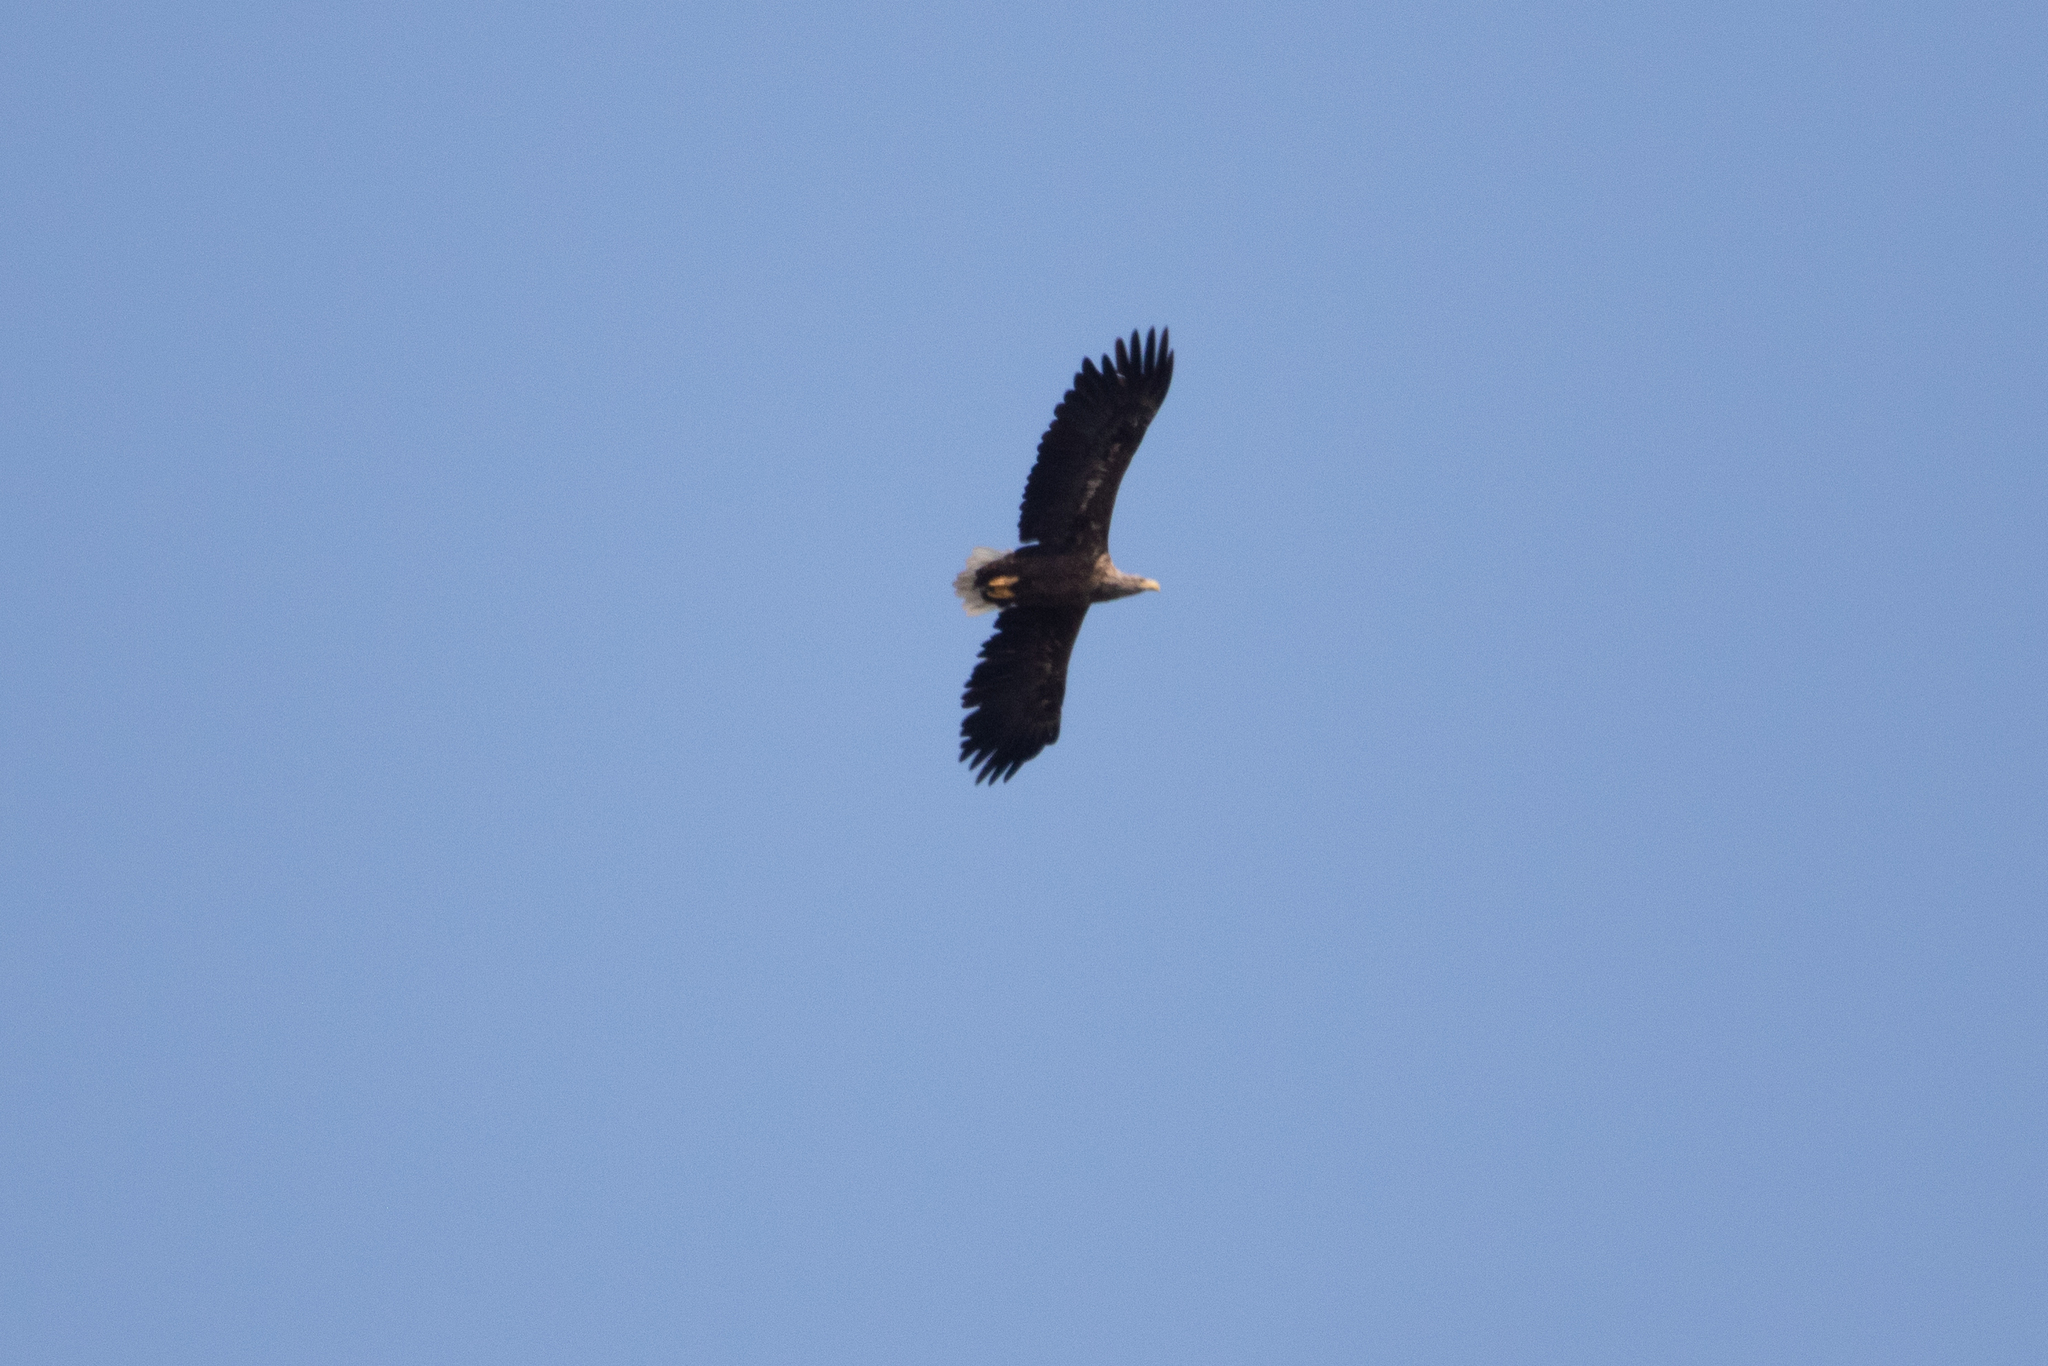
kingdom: Animalia
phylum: Chordata
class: Aves
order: Accipitriformes
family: Accipitridae
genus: Haliaeetus
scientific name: Haliaeetus albicilla
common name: White-tailed eagle
